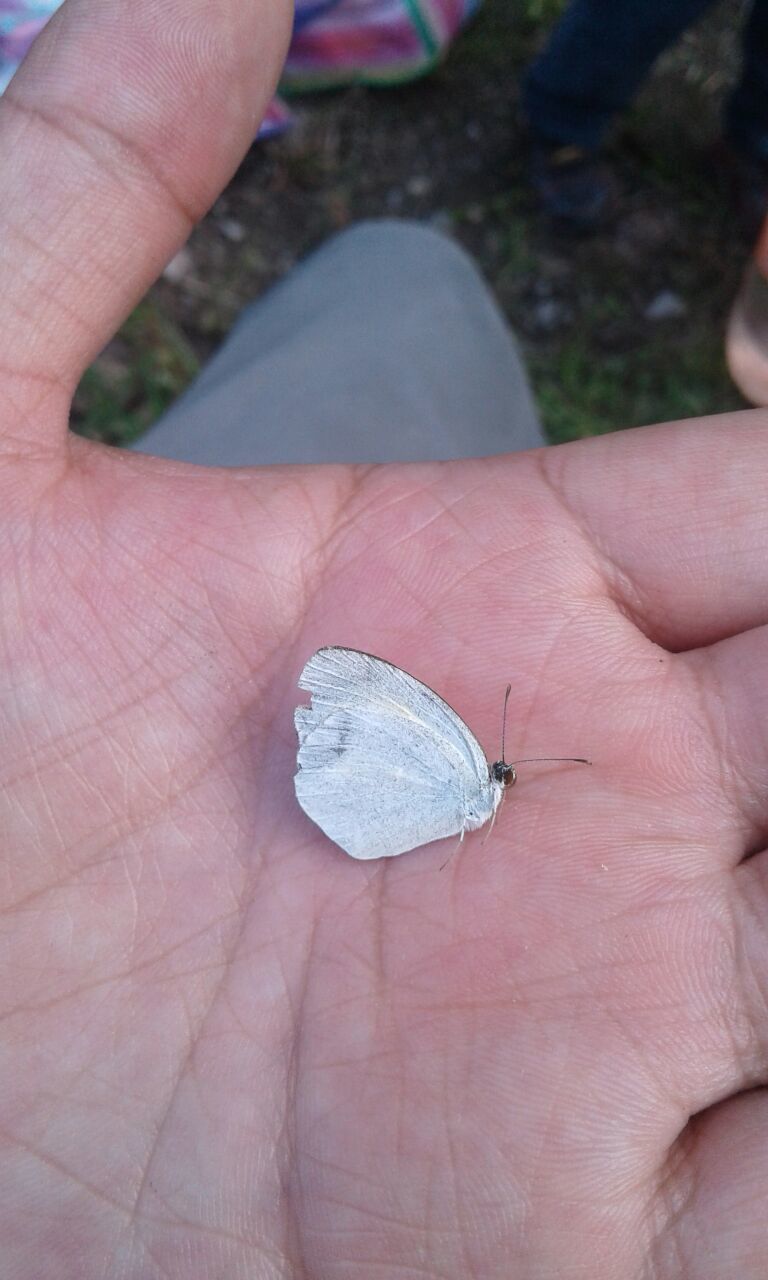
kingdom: Animalia
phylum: Arthropoda
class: Insecta
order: Lepidoptera
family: Pieridae
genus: Eurema
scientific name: Eurema daira
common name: Barred sulphur
